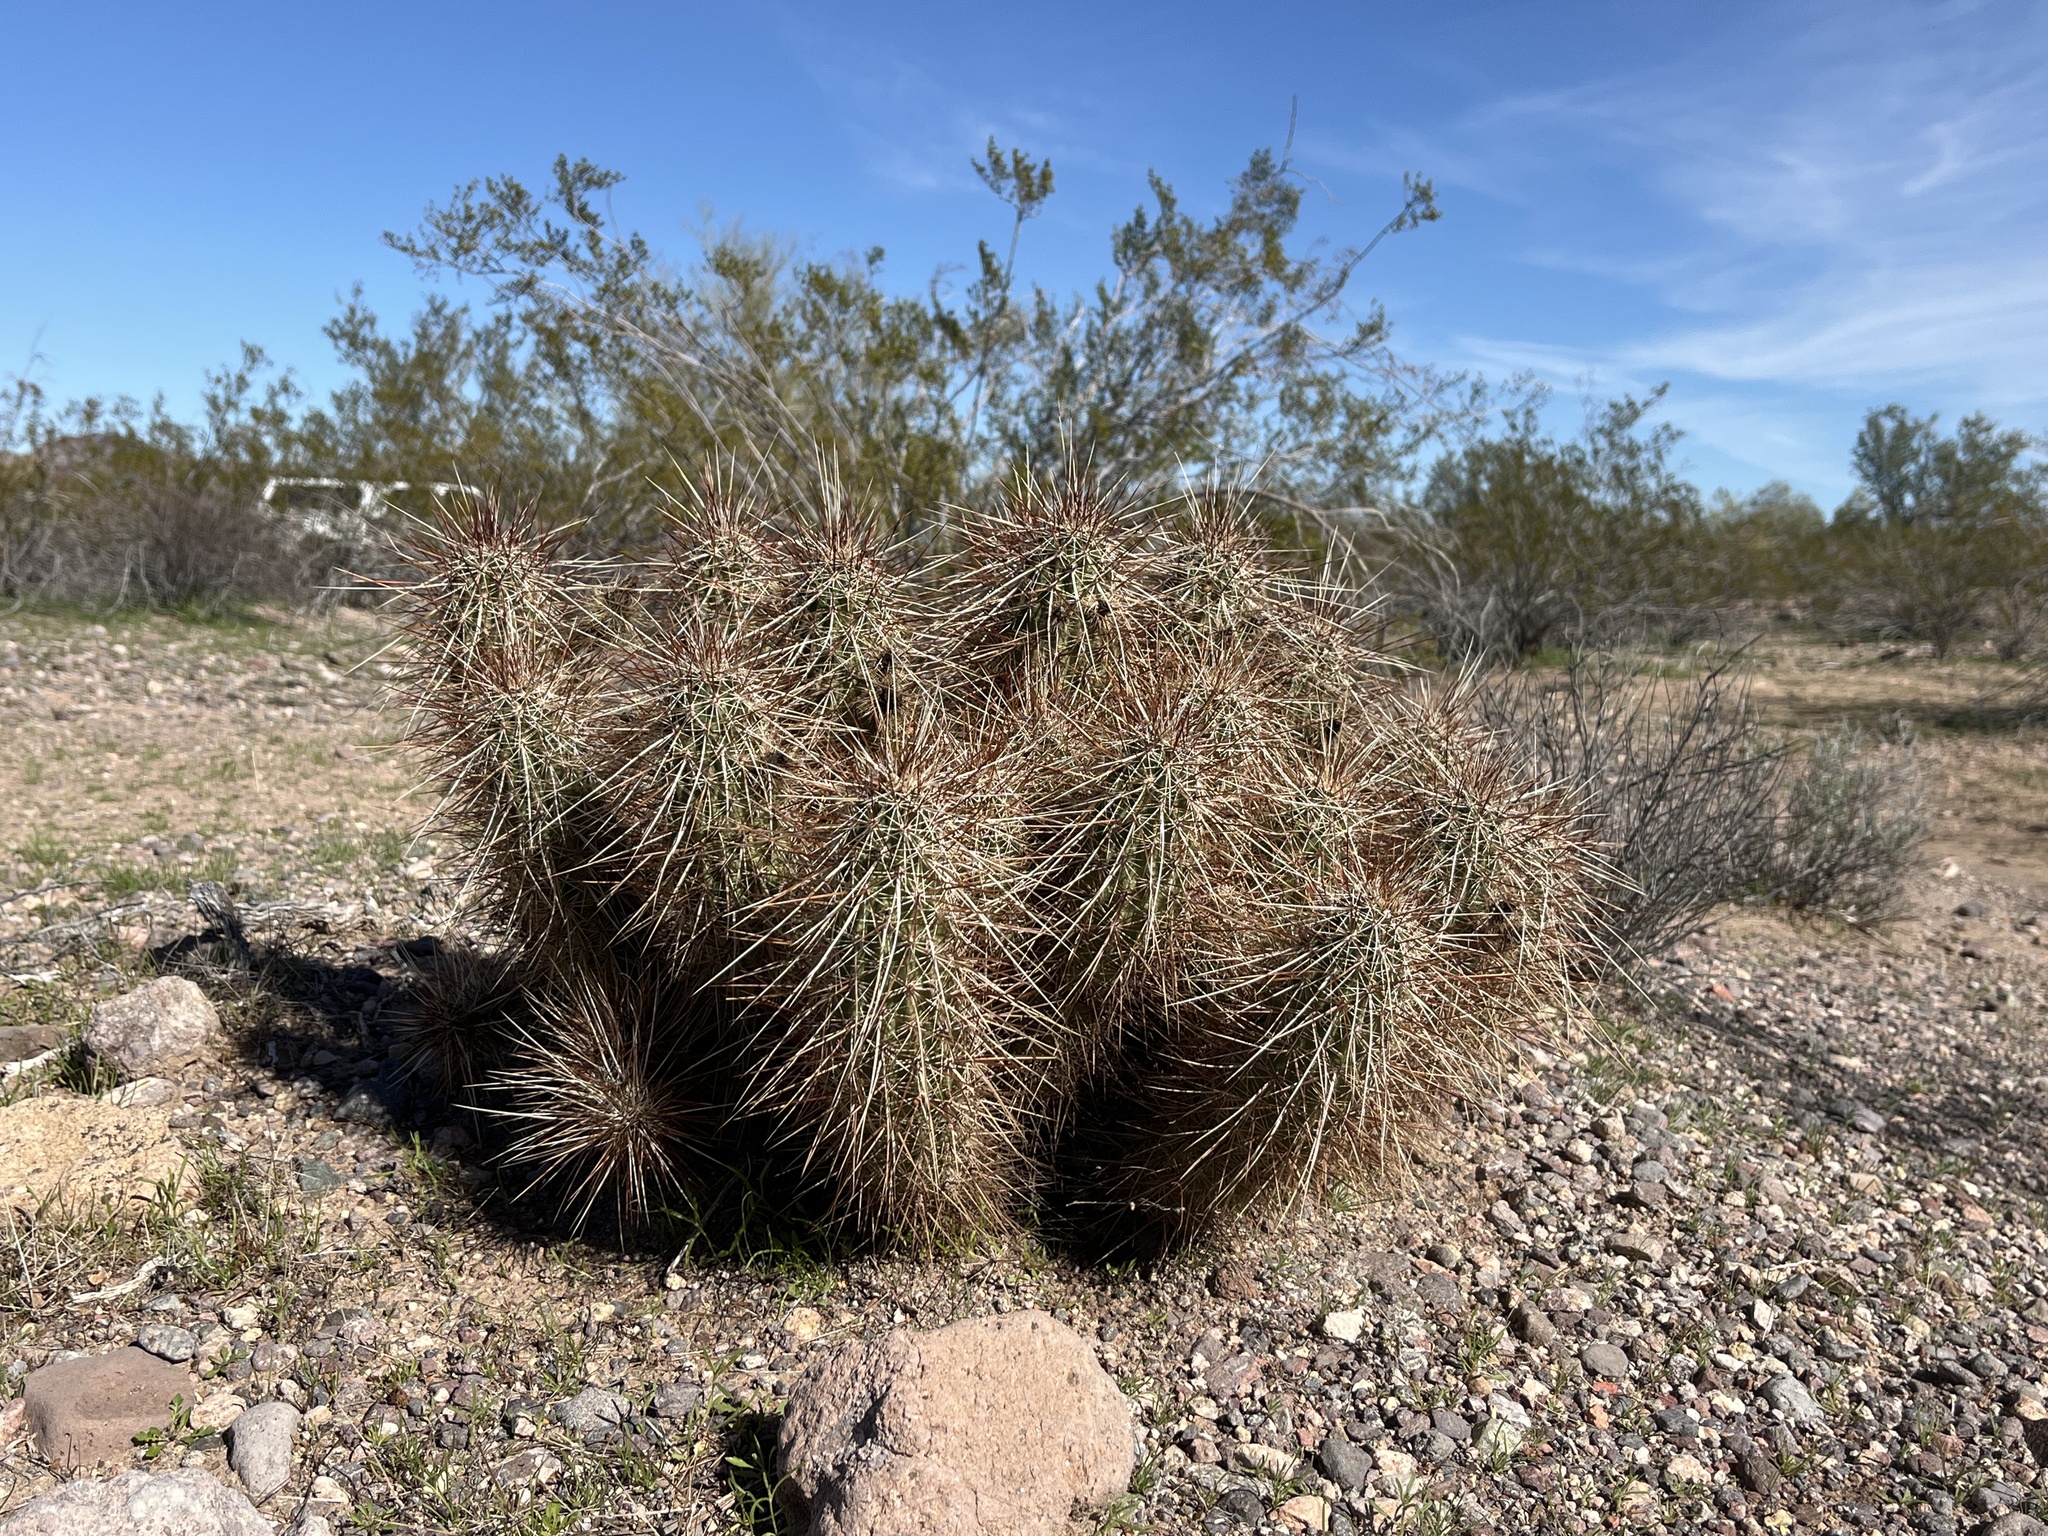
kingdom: Plantae
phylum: Tracheophyta
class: Magnoliopsida
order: Caryophyllales
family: Cactaceae
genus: Echinocereus
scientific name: Echinocereus engelmannii
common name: Engelmann's hedgehog cactus
